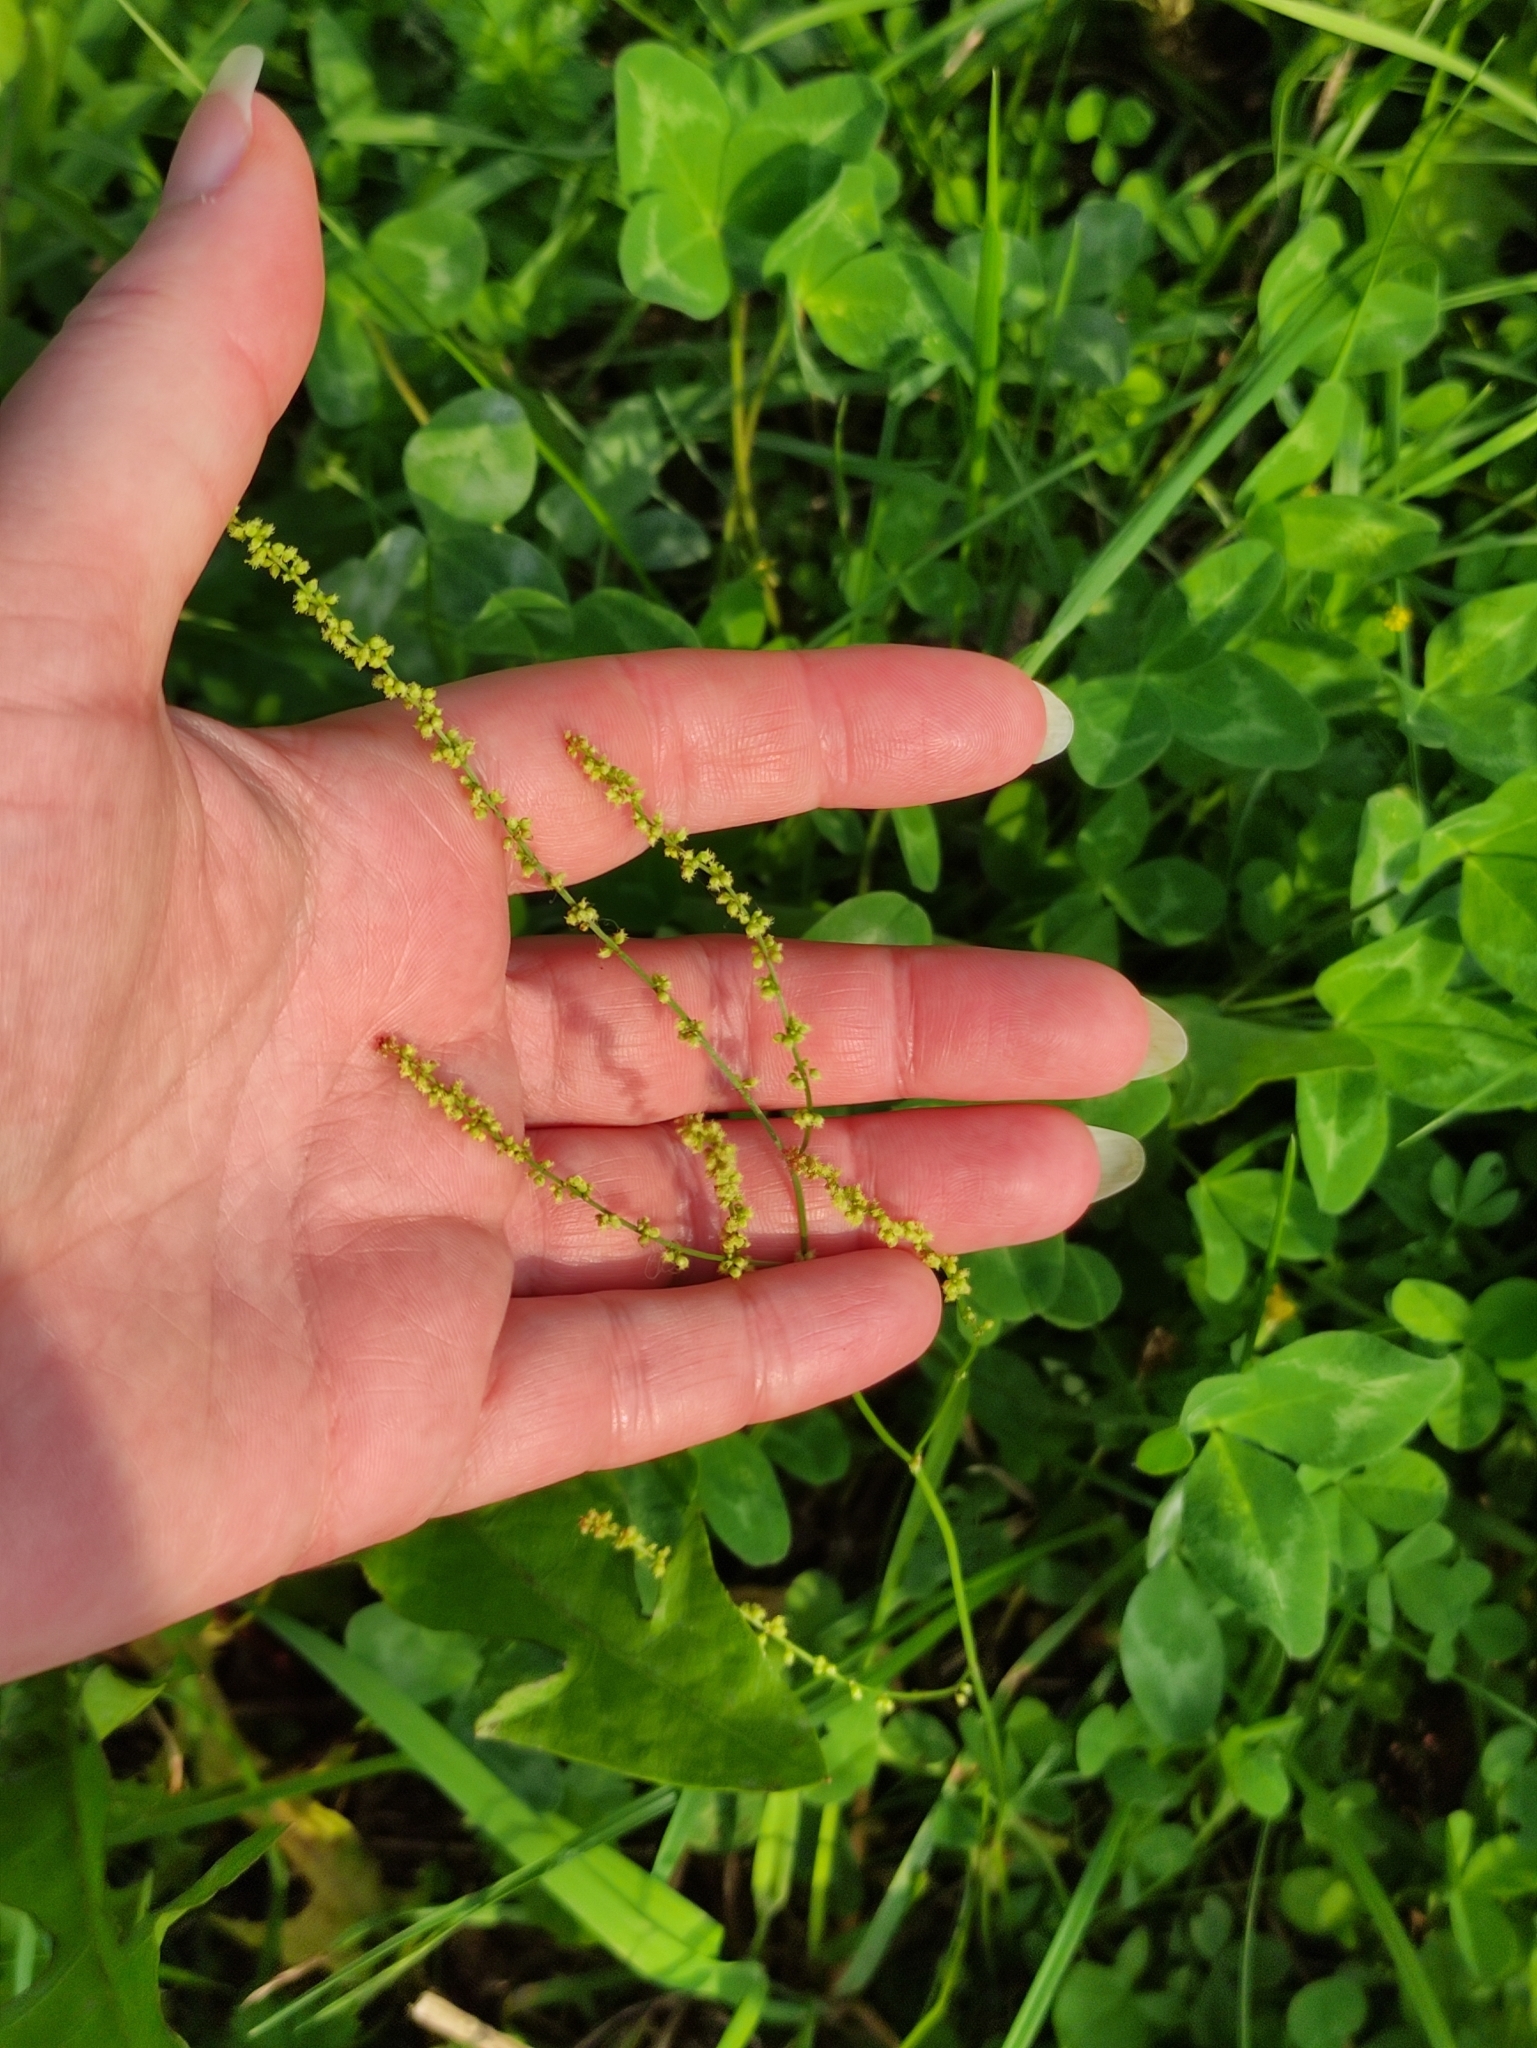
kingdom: Plantae
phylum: Tracheophyta
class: Magnoliopsida
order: Caryophyllales
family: Polygonaceae
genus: Rumex
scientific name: Rumex acetosella
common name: Common sheep sorrel
